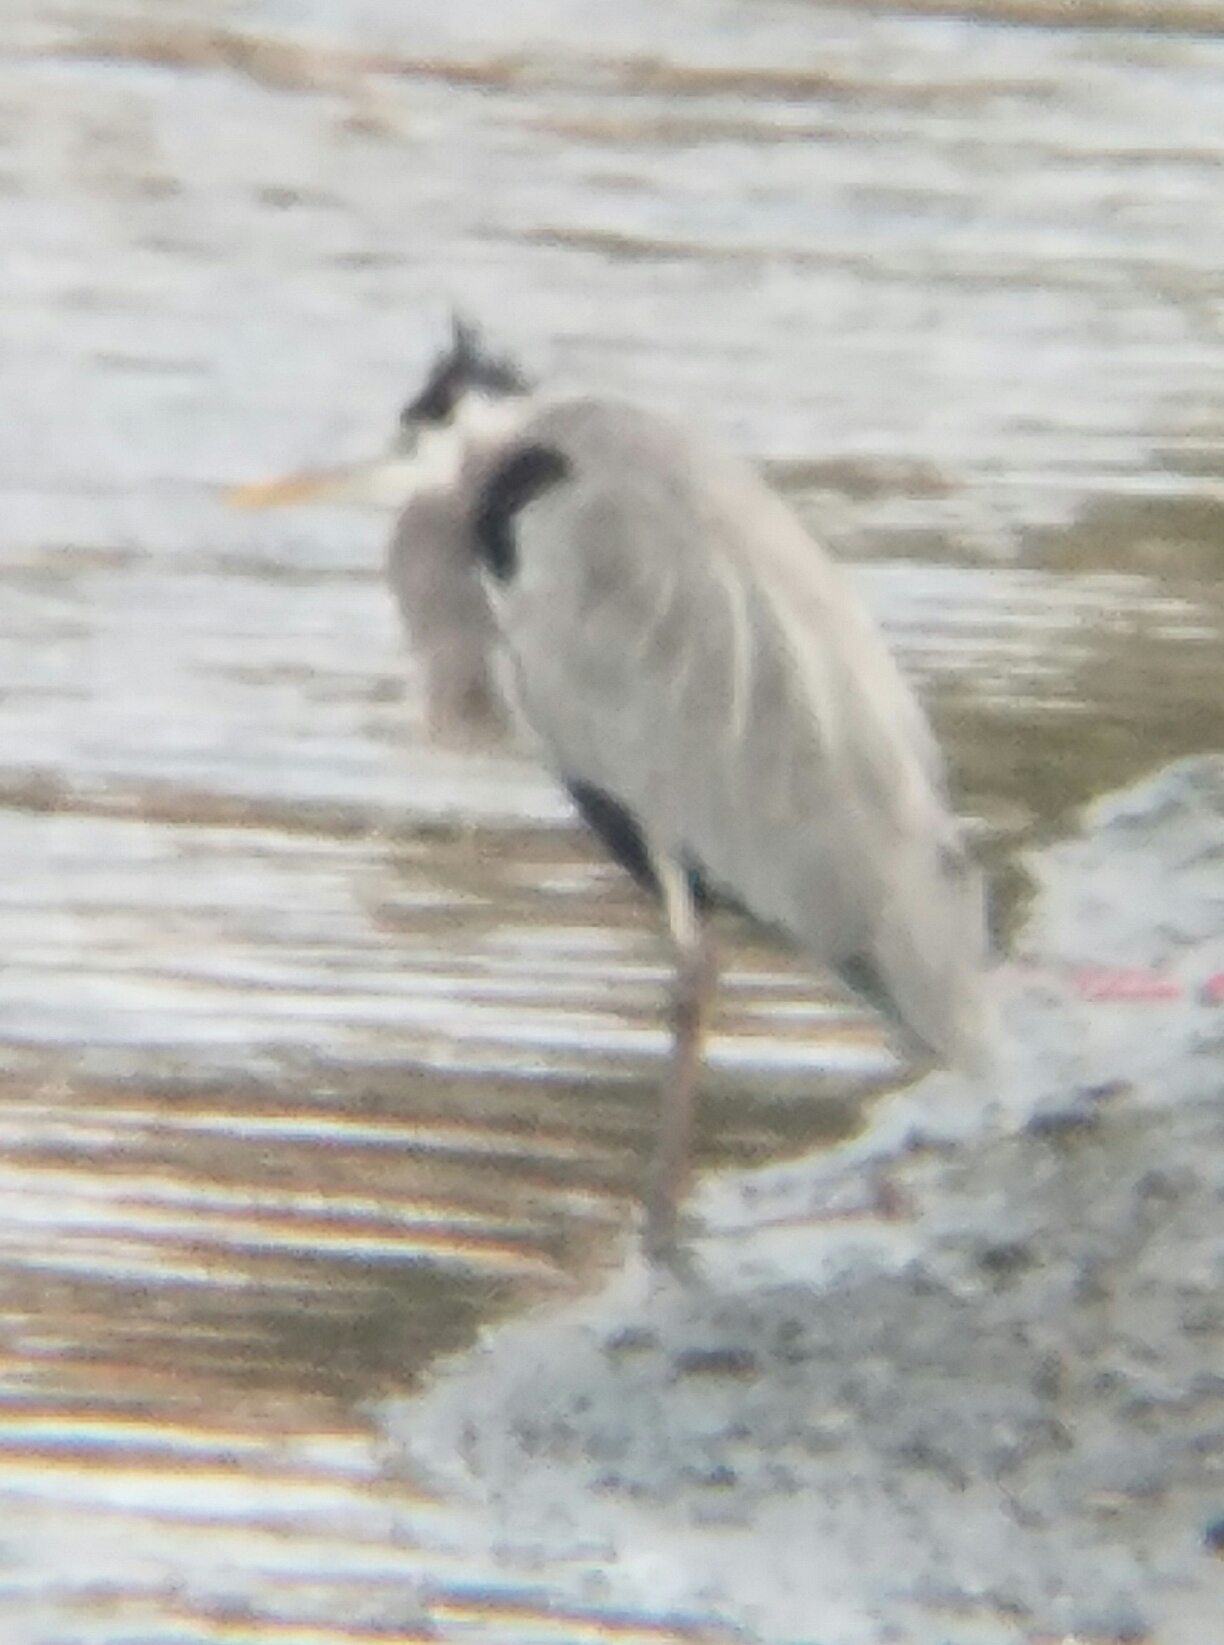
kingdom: Animalia
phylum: Chordata
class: Aves
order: Pelecaniformes
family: Ardeidae
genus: Ardea
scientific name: Ardea herodias
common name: Great blue heron
